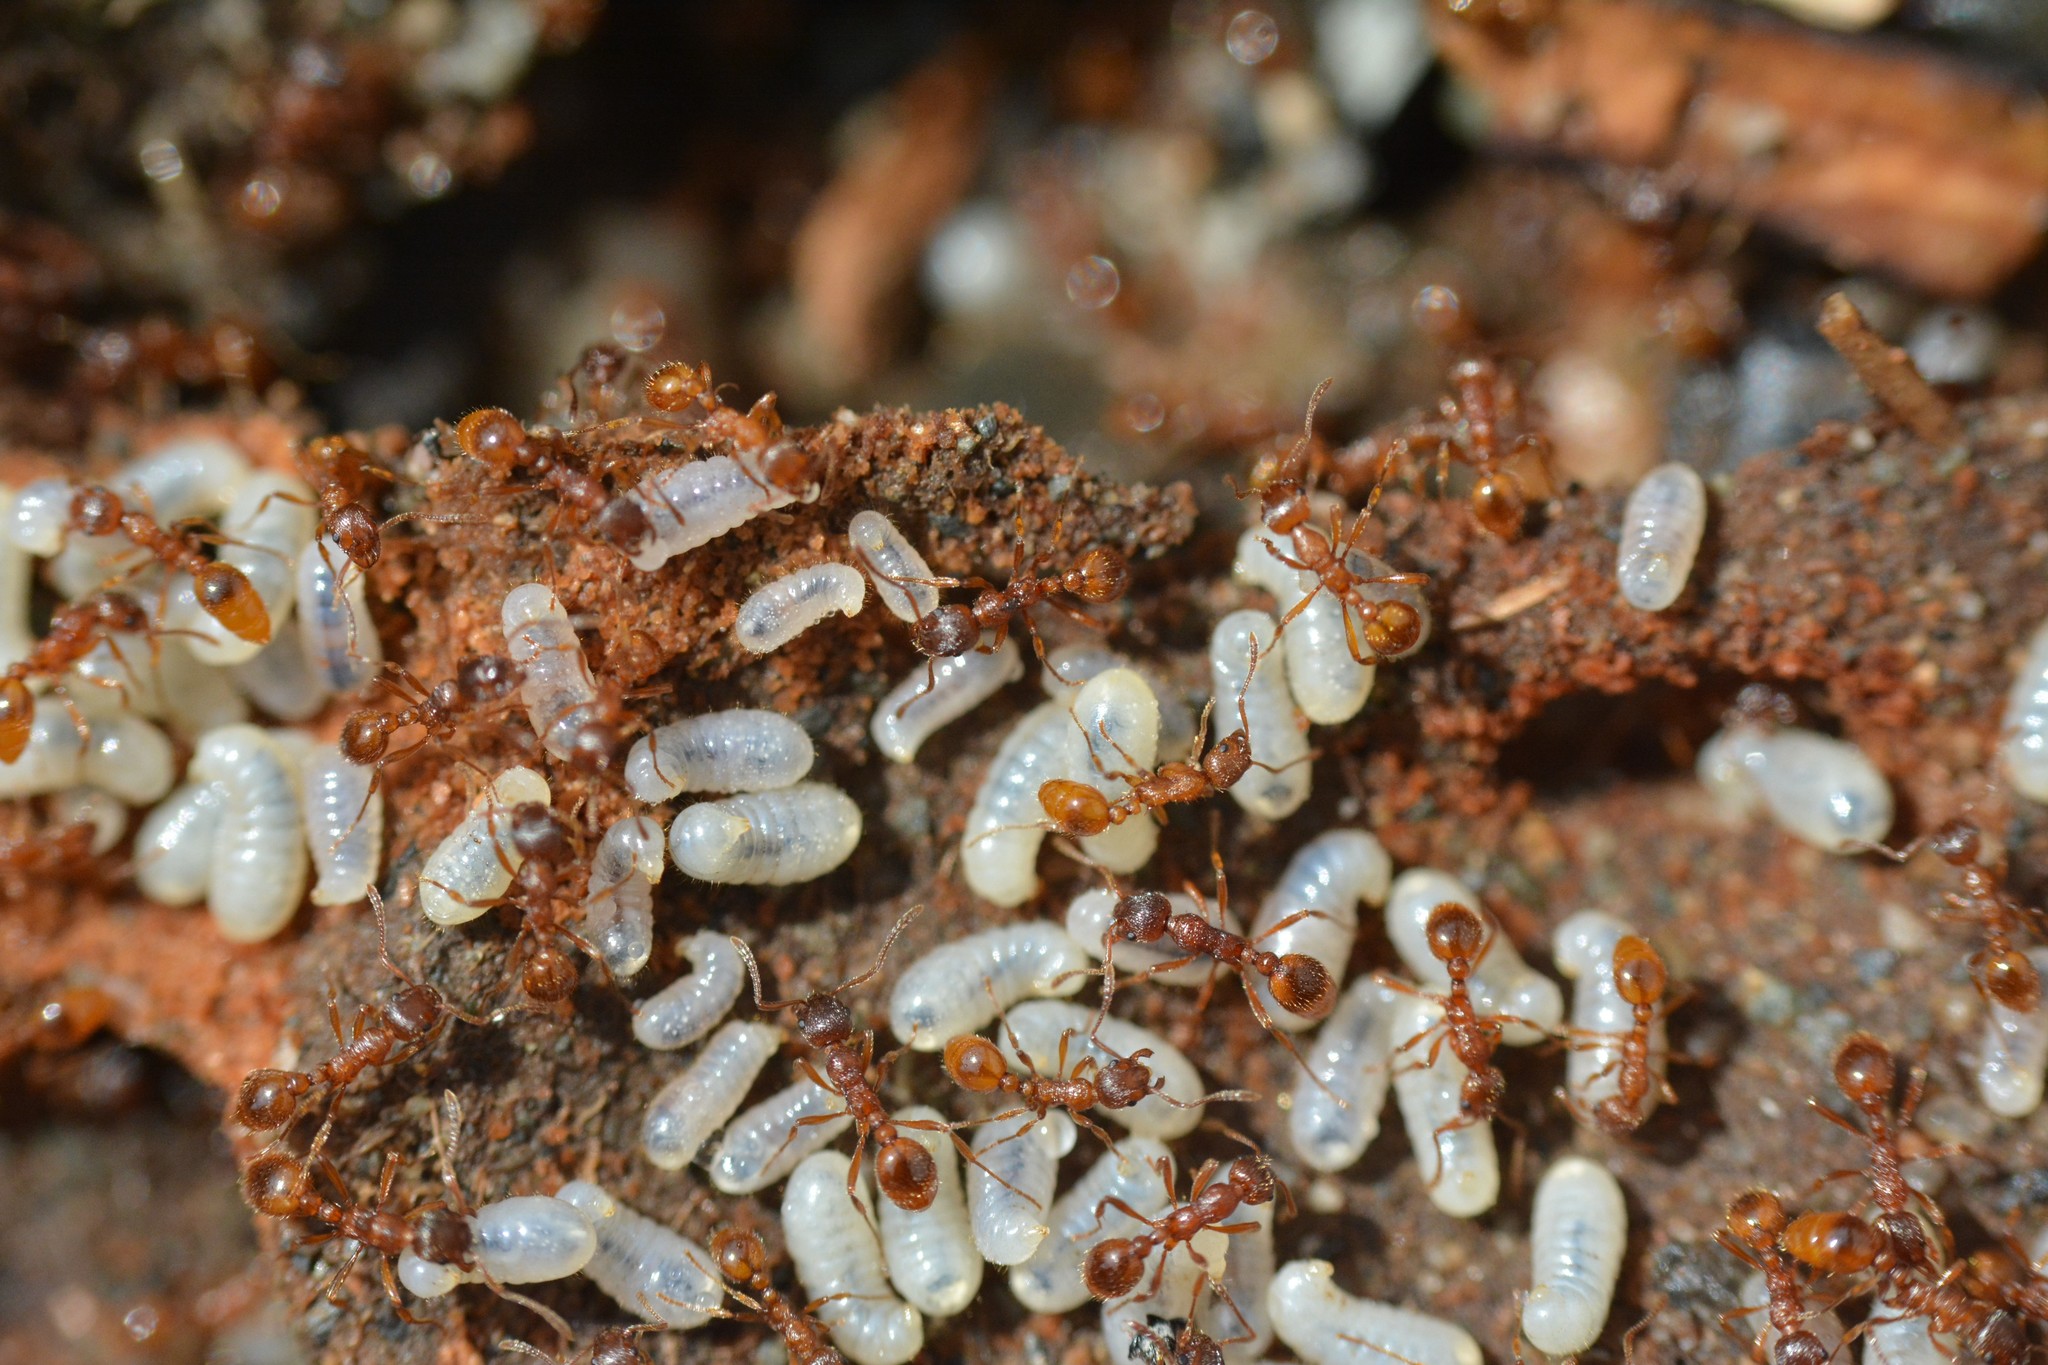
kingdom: Animalia
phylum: Arthropoda
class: Insecta
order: Hymenoptera
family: Formicidae
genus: Myrmica
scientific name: Myrmica rubra
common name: European fire ant
